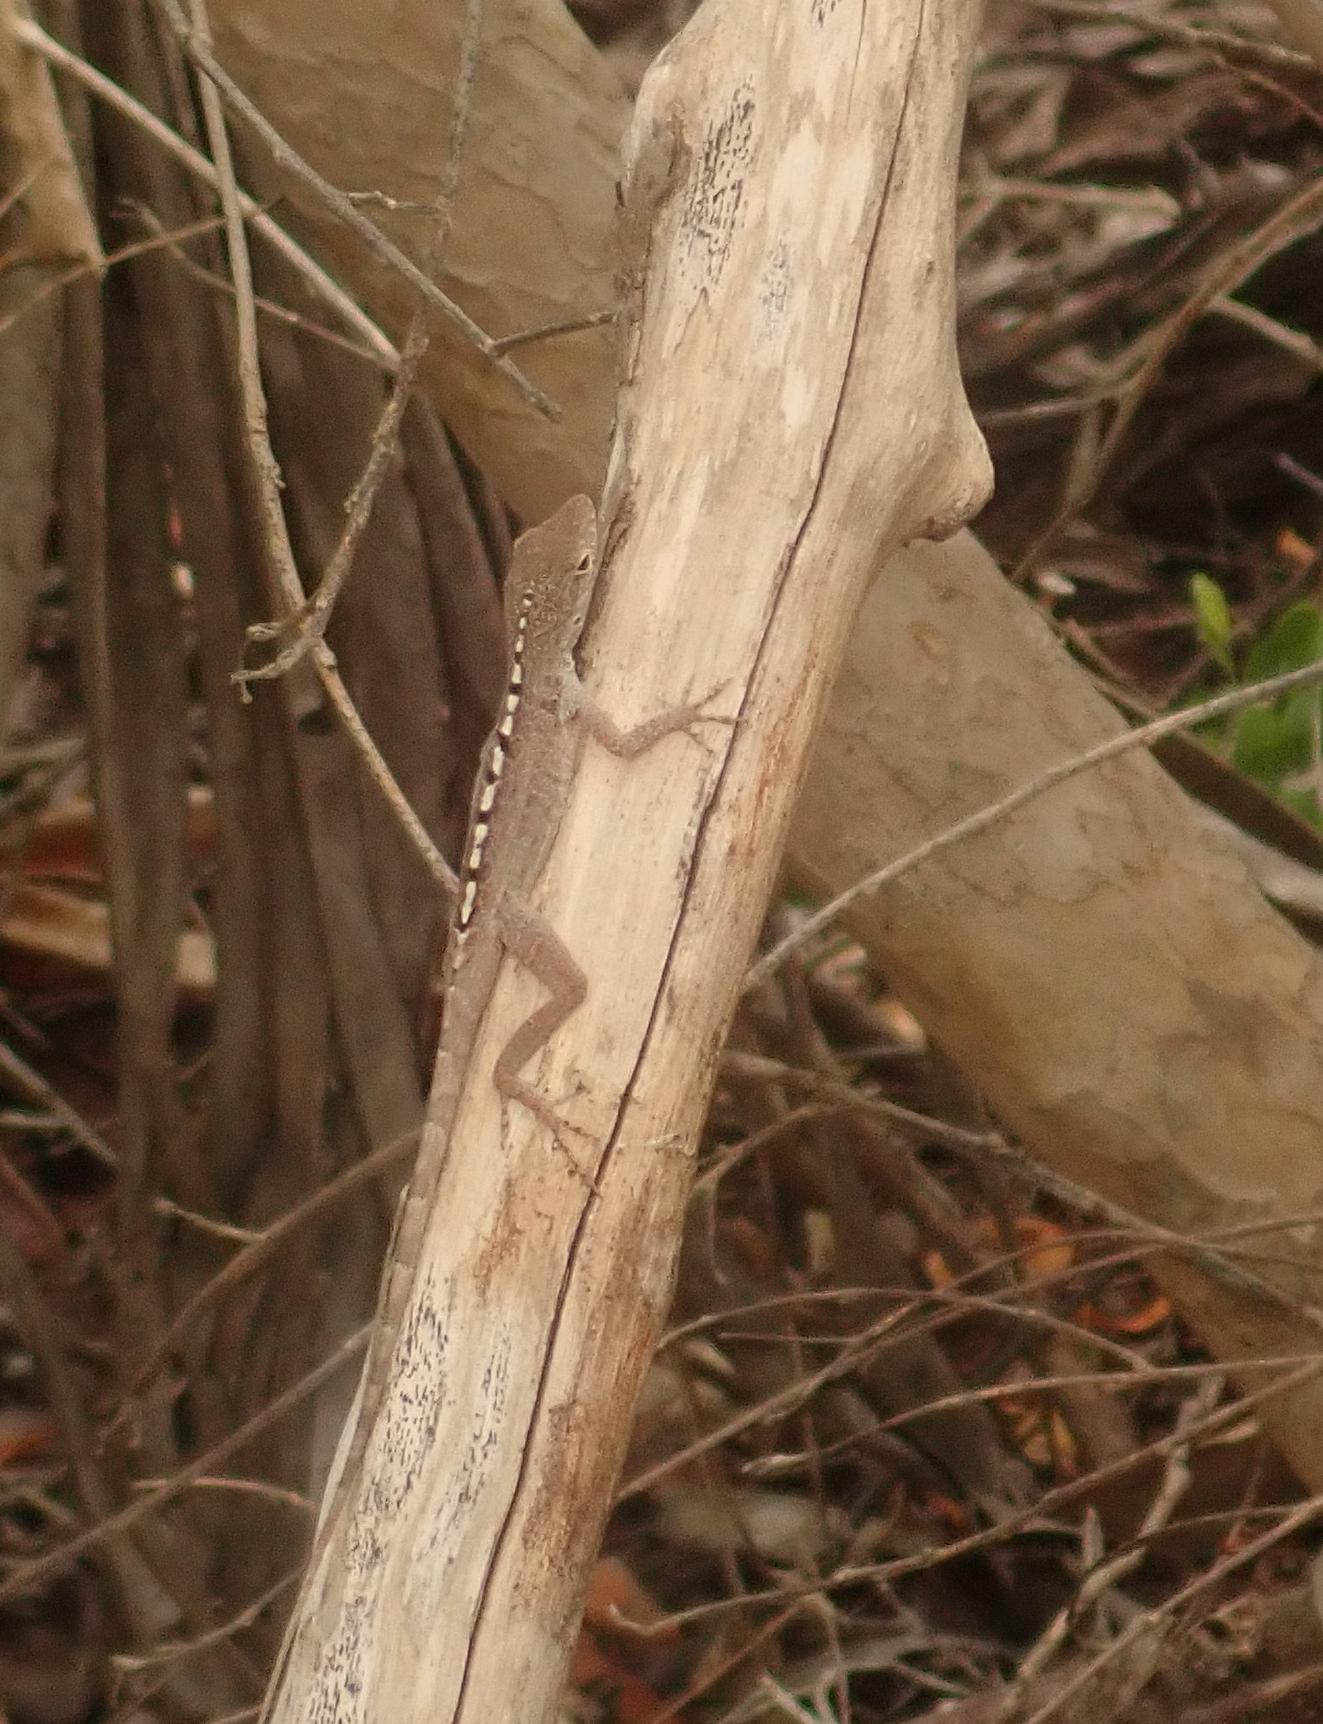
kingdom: Animalia
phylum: Chordata
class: Squamata
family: Dactyloidae
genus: Anolis
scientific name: Anolis scriptus
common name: Silver key anole
